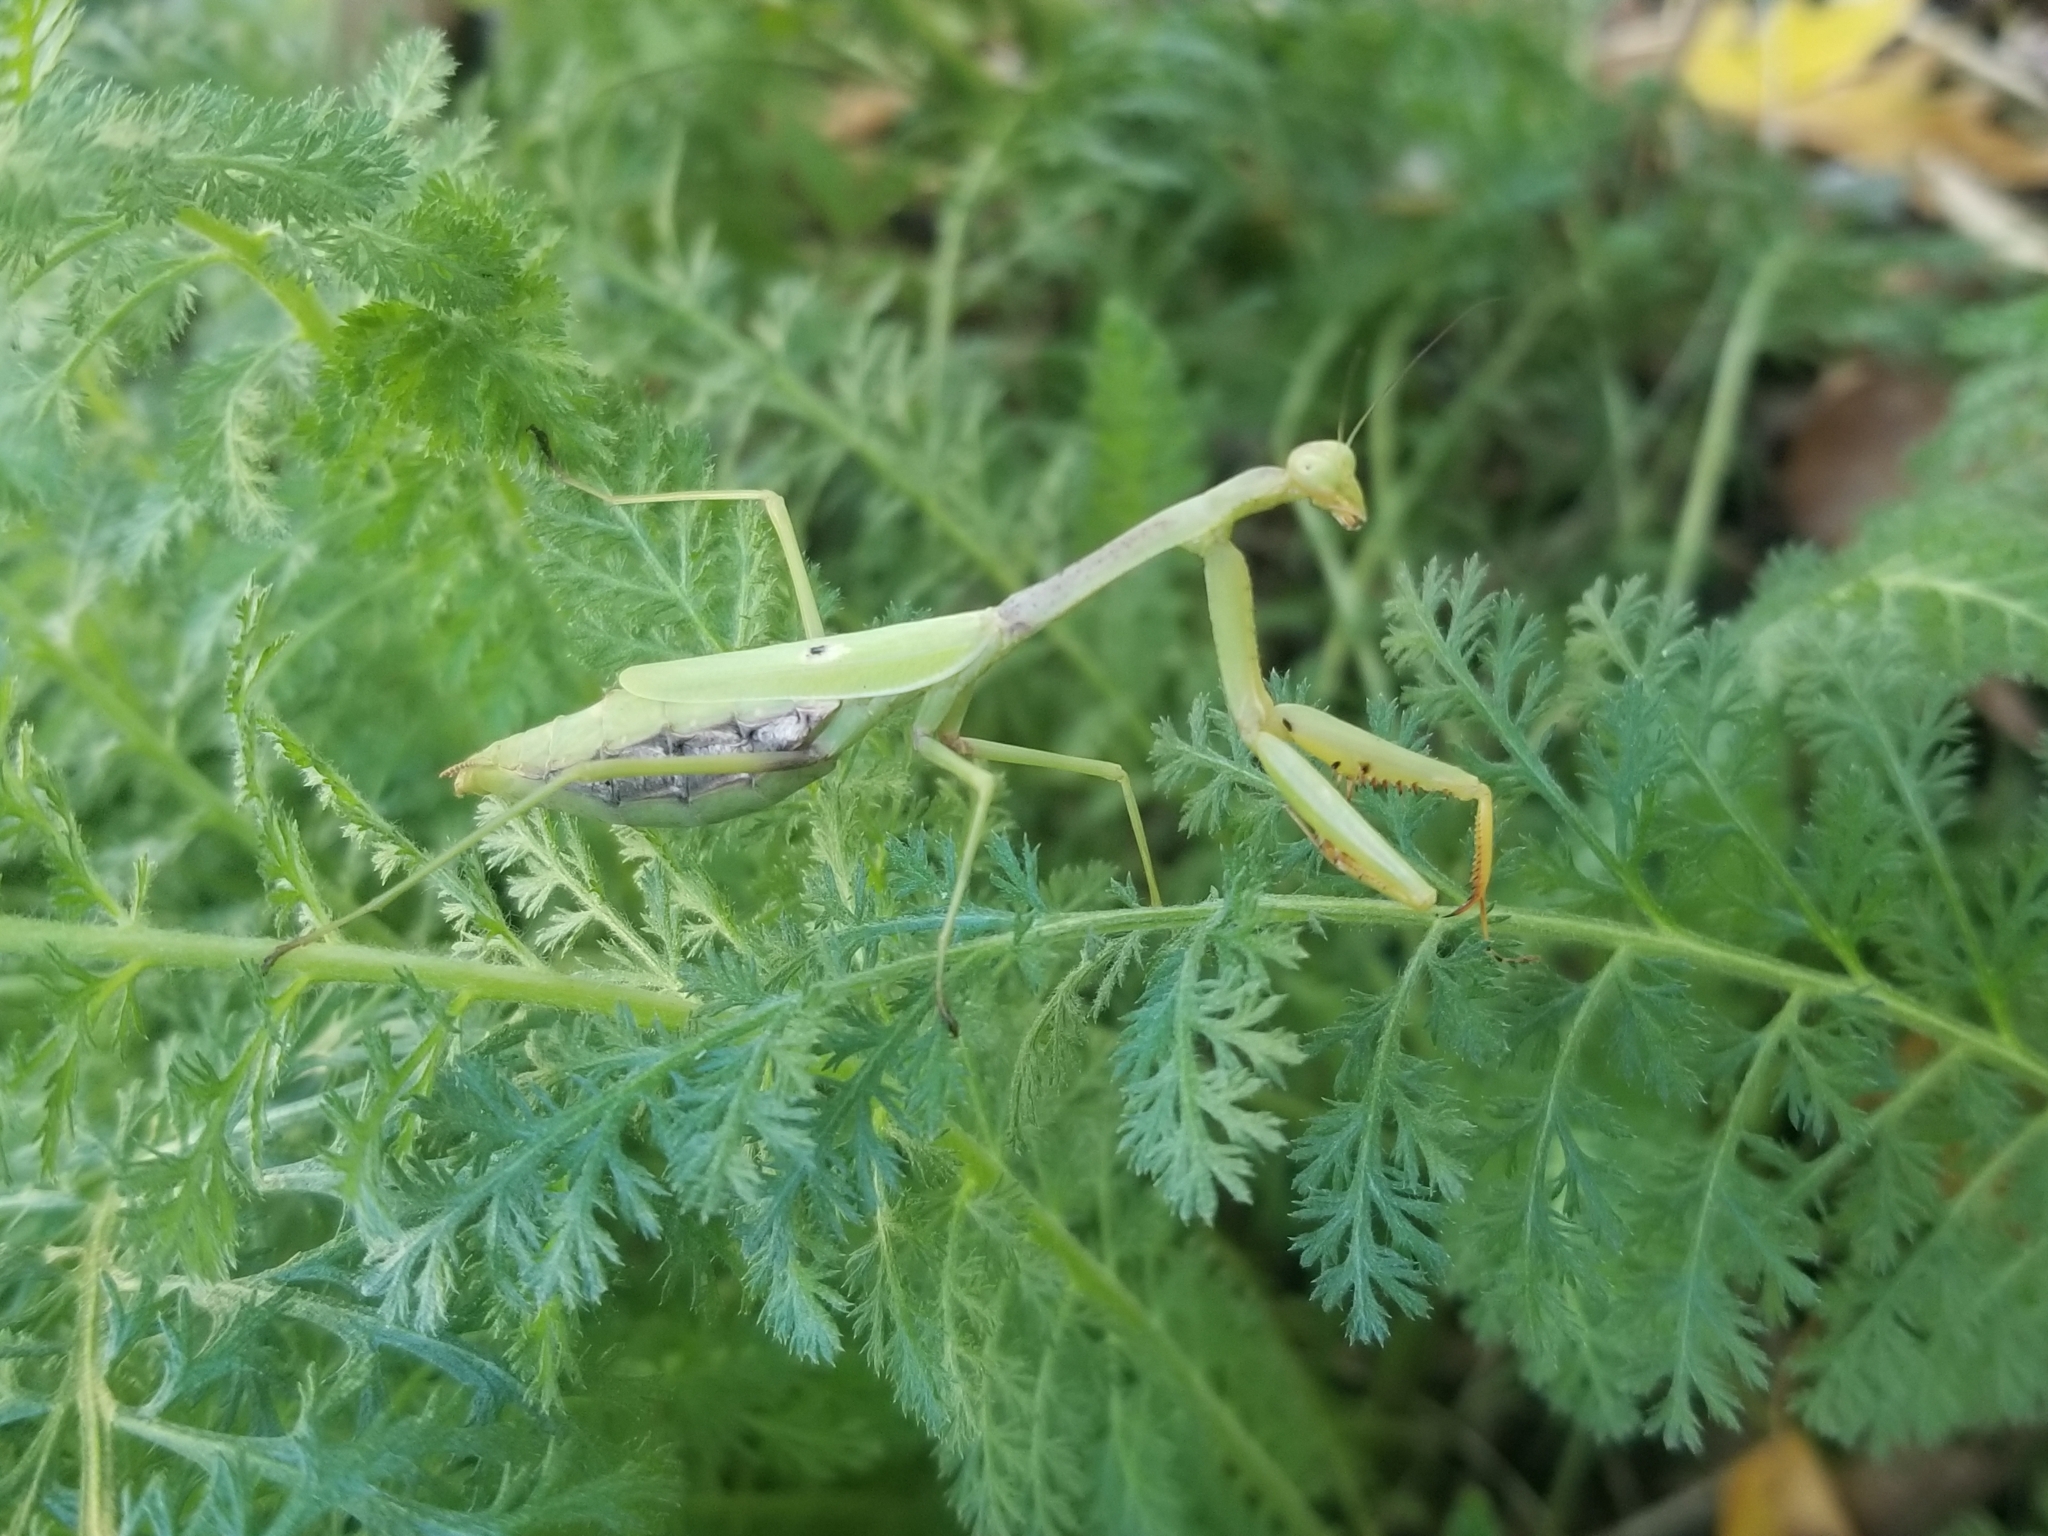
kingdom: Animalia
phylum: Arthropoda
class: Insecta
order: Mantodea
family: Mantidae
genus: Stagmomantis
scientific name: Stagmomantis carolina
